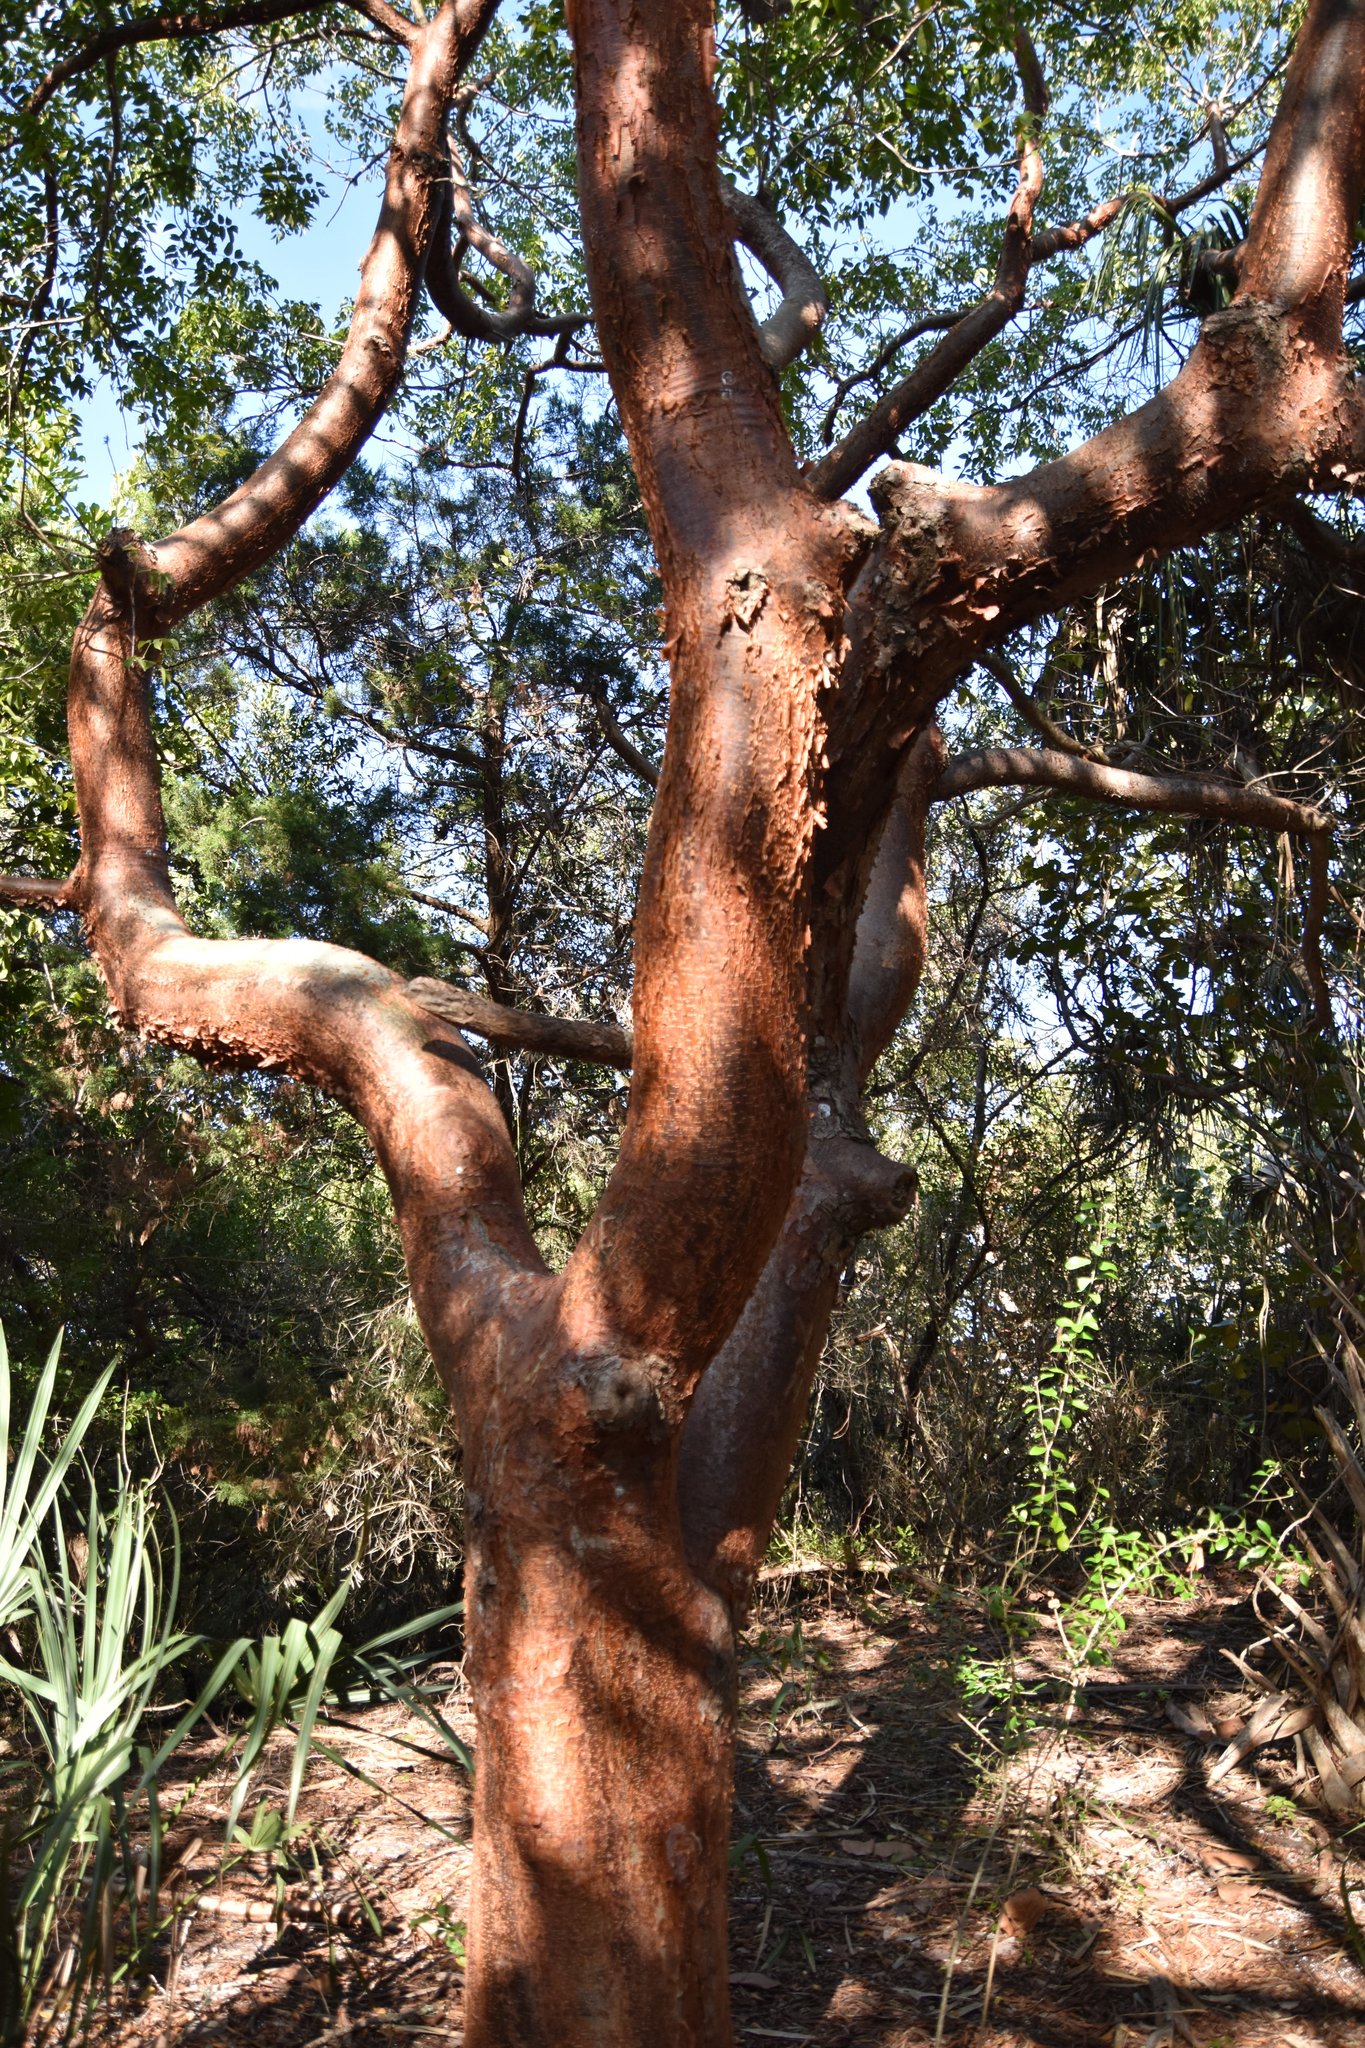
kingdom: Plantae
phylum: Tracheophyta
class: Magnoliopsida
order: Sapindales
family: Burseraceae
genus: Bursera
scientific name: Bursera simaruba
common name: Turpentine tree
